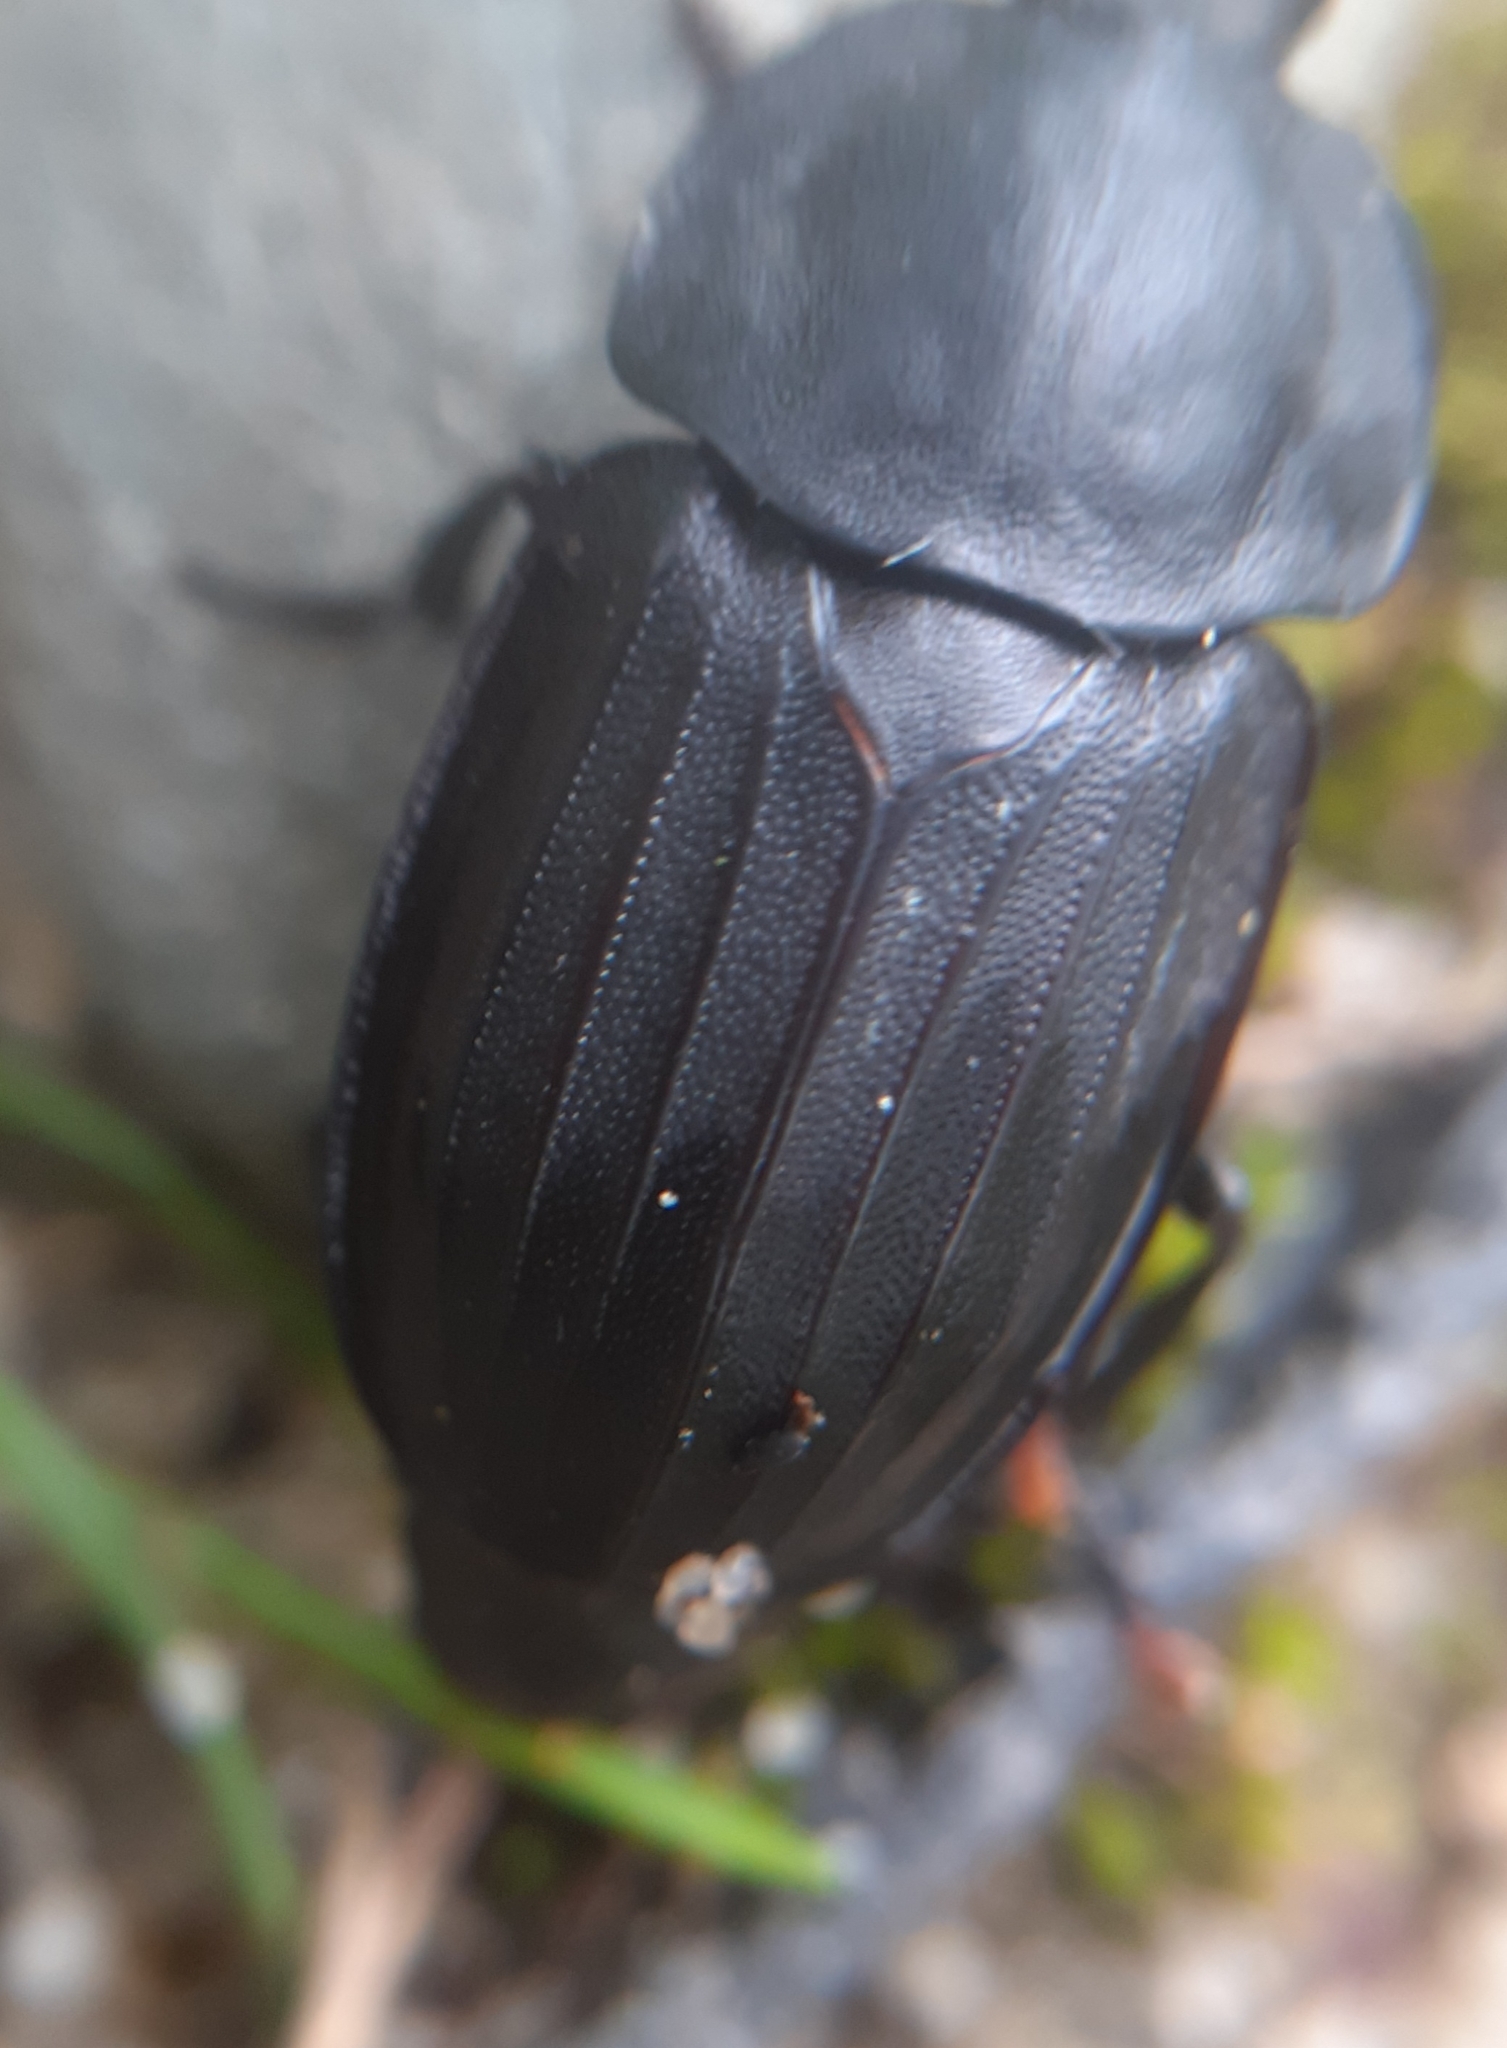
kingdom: Animalia
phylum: Arthropoda
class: Insecta
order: Coleoptera
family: Staphylinidae
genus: Silpha
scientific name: Silpha tristis
